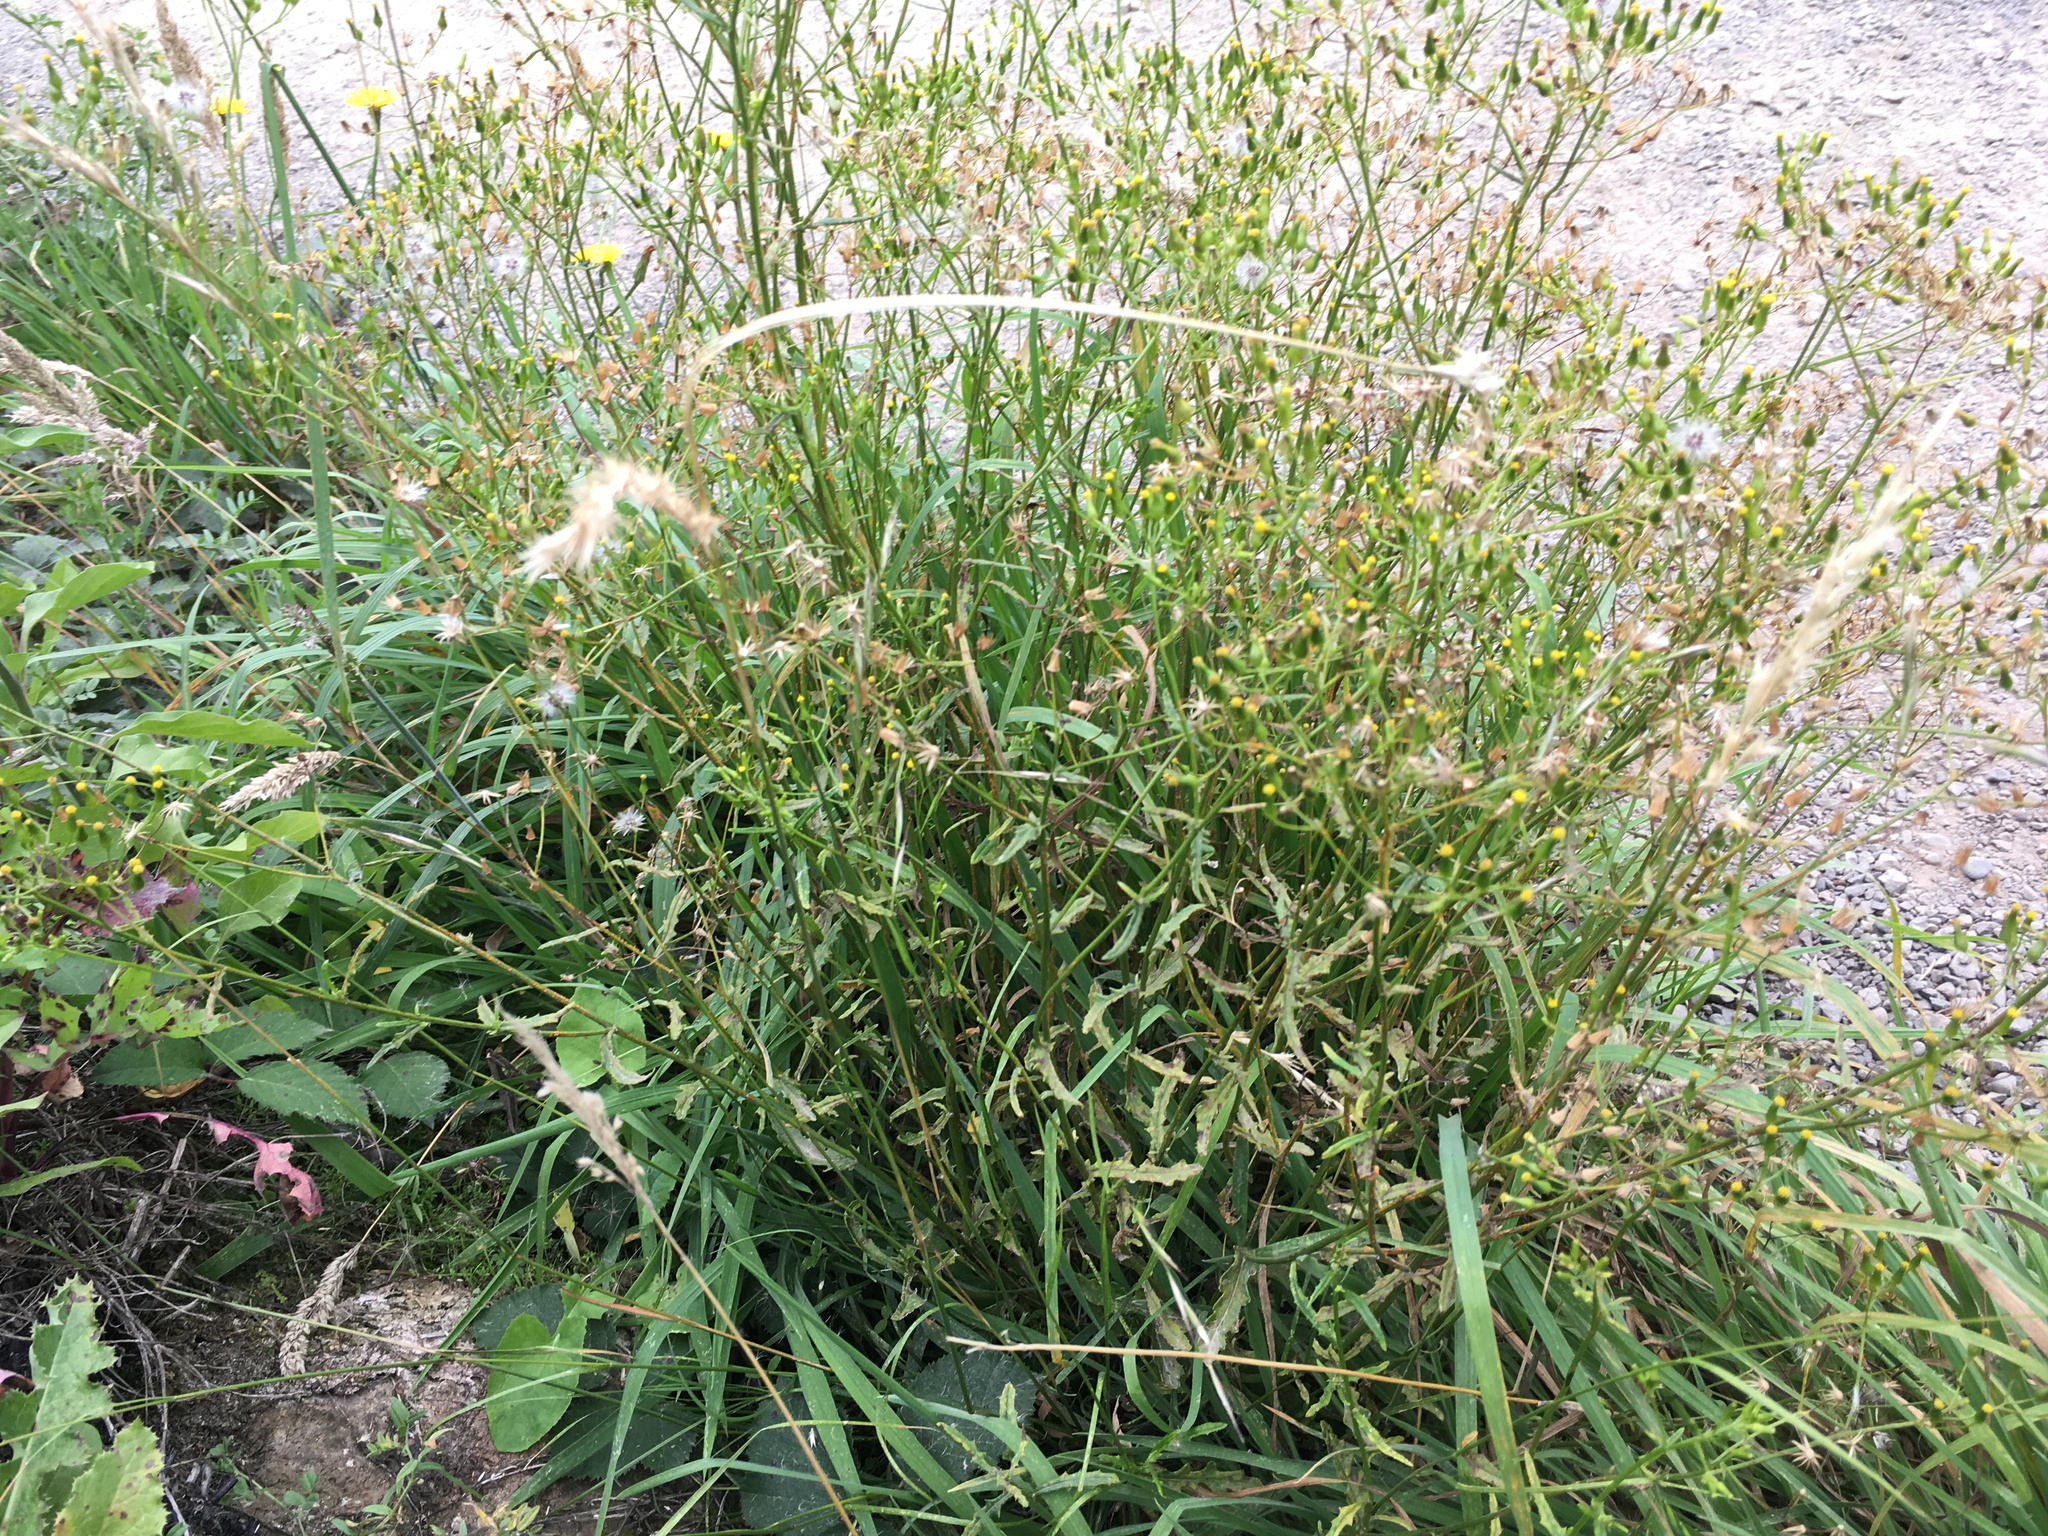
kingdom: Plantae
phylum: Tracheophyta
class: Magnoliopsida
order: Asterales
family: Asteraceae
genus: Senecio
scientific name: Senecio hispidulus
